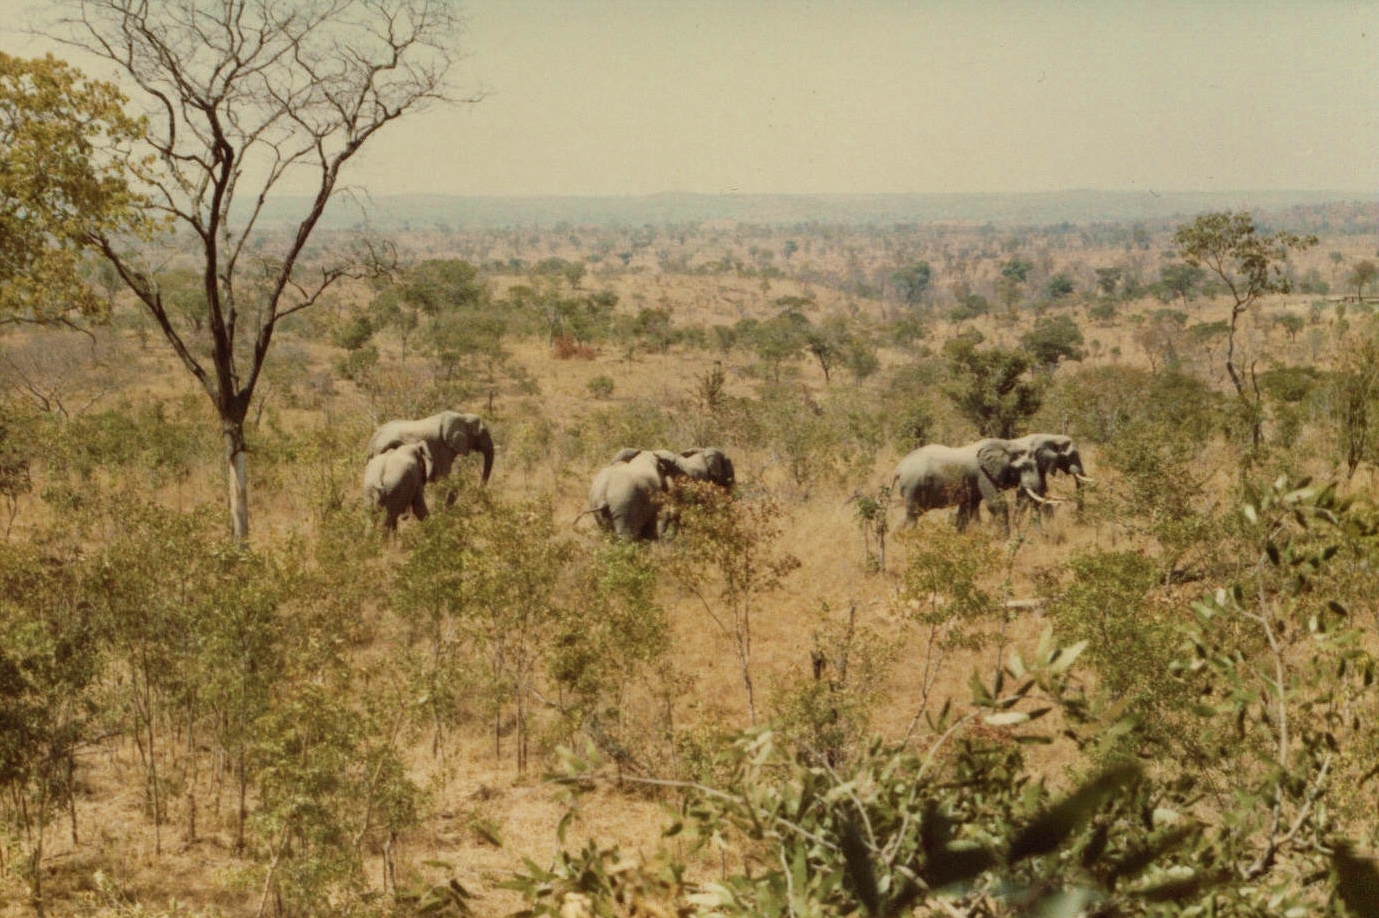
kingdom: Animalia
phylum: Chordata
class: Mammalia
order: Proboscidea
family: Elephantidae
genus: Loxodonta
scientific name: Loxodonta africana
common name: African elephant
